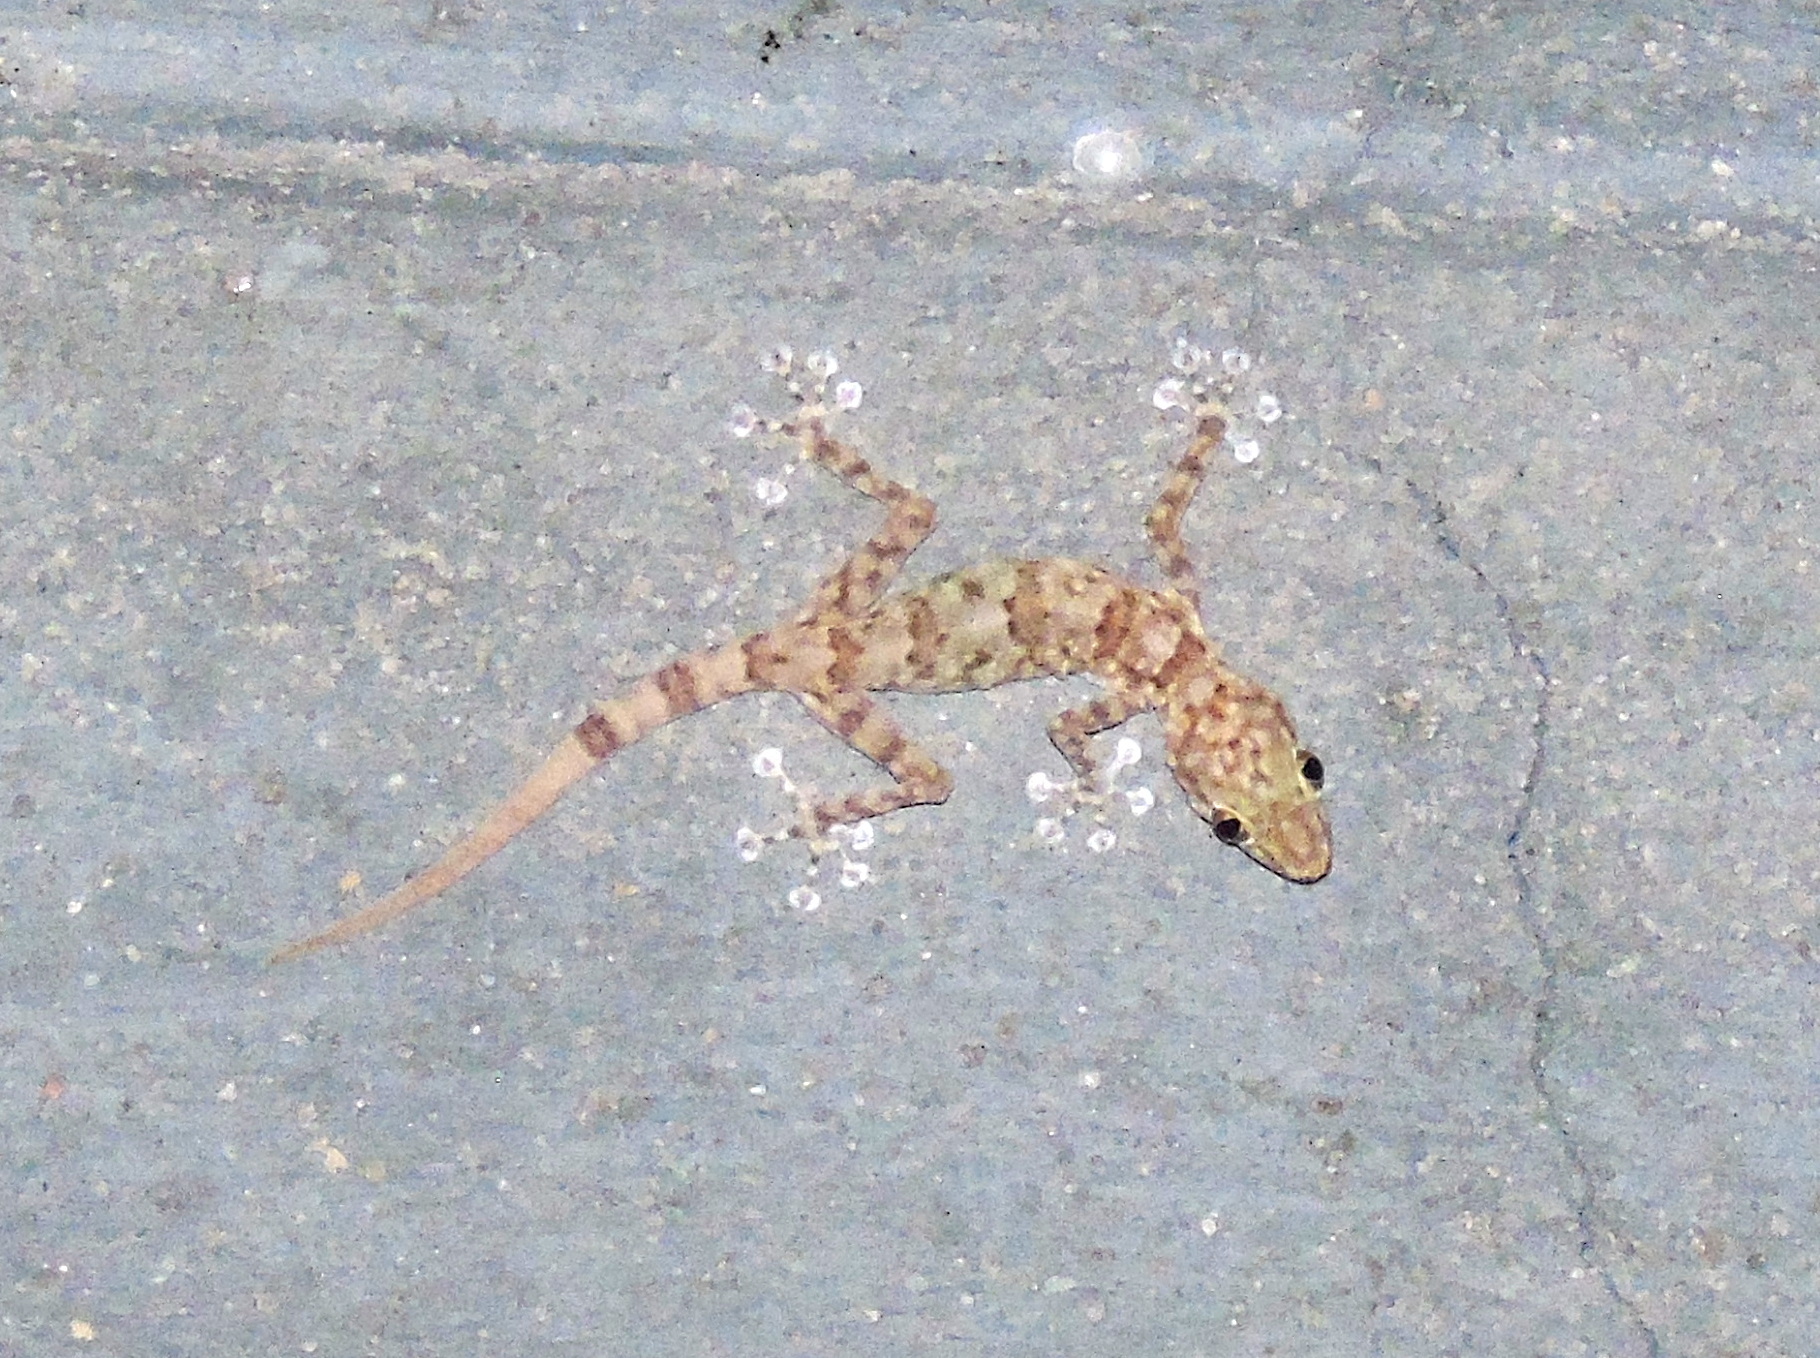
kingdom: Animalia
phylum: Chordata
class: Squamata
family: Phyllodactylidae
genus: Ptyodactylus
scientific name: Ptyodactylus hasselquistii
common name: Hasselquist’s fan-footed gecko
